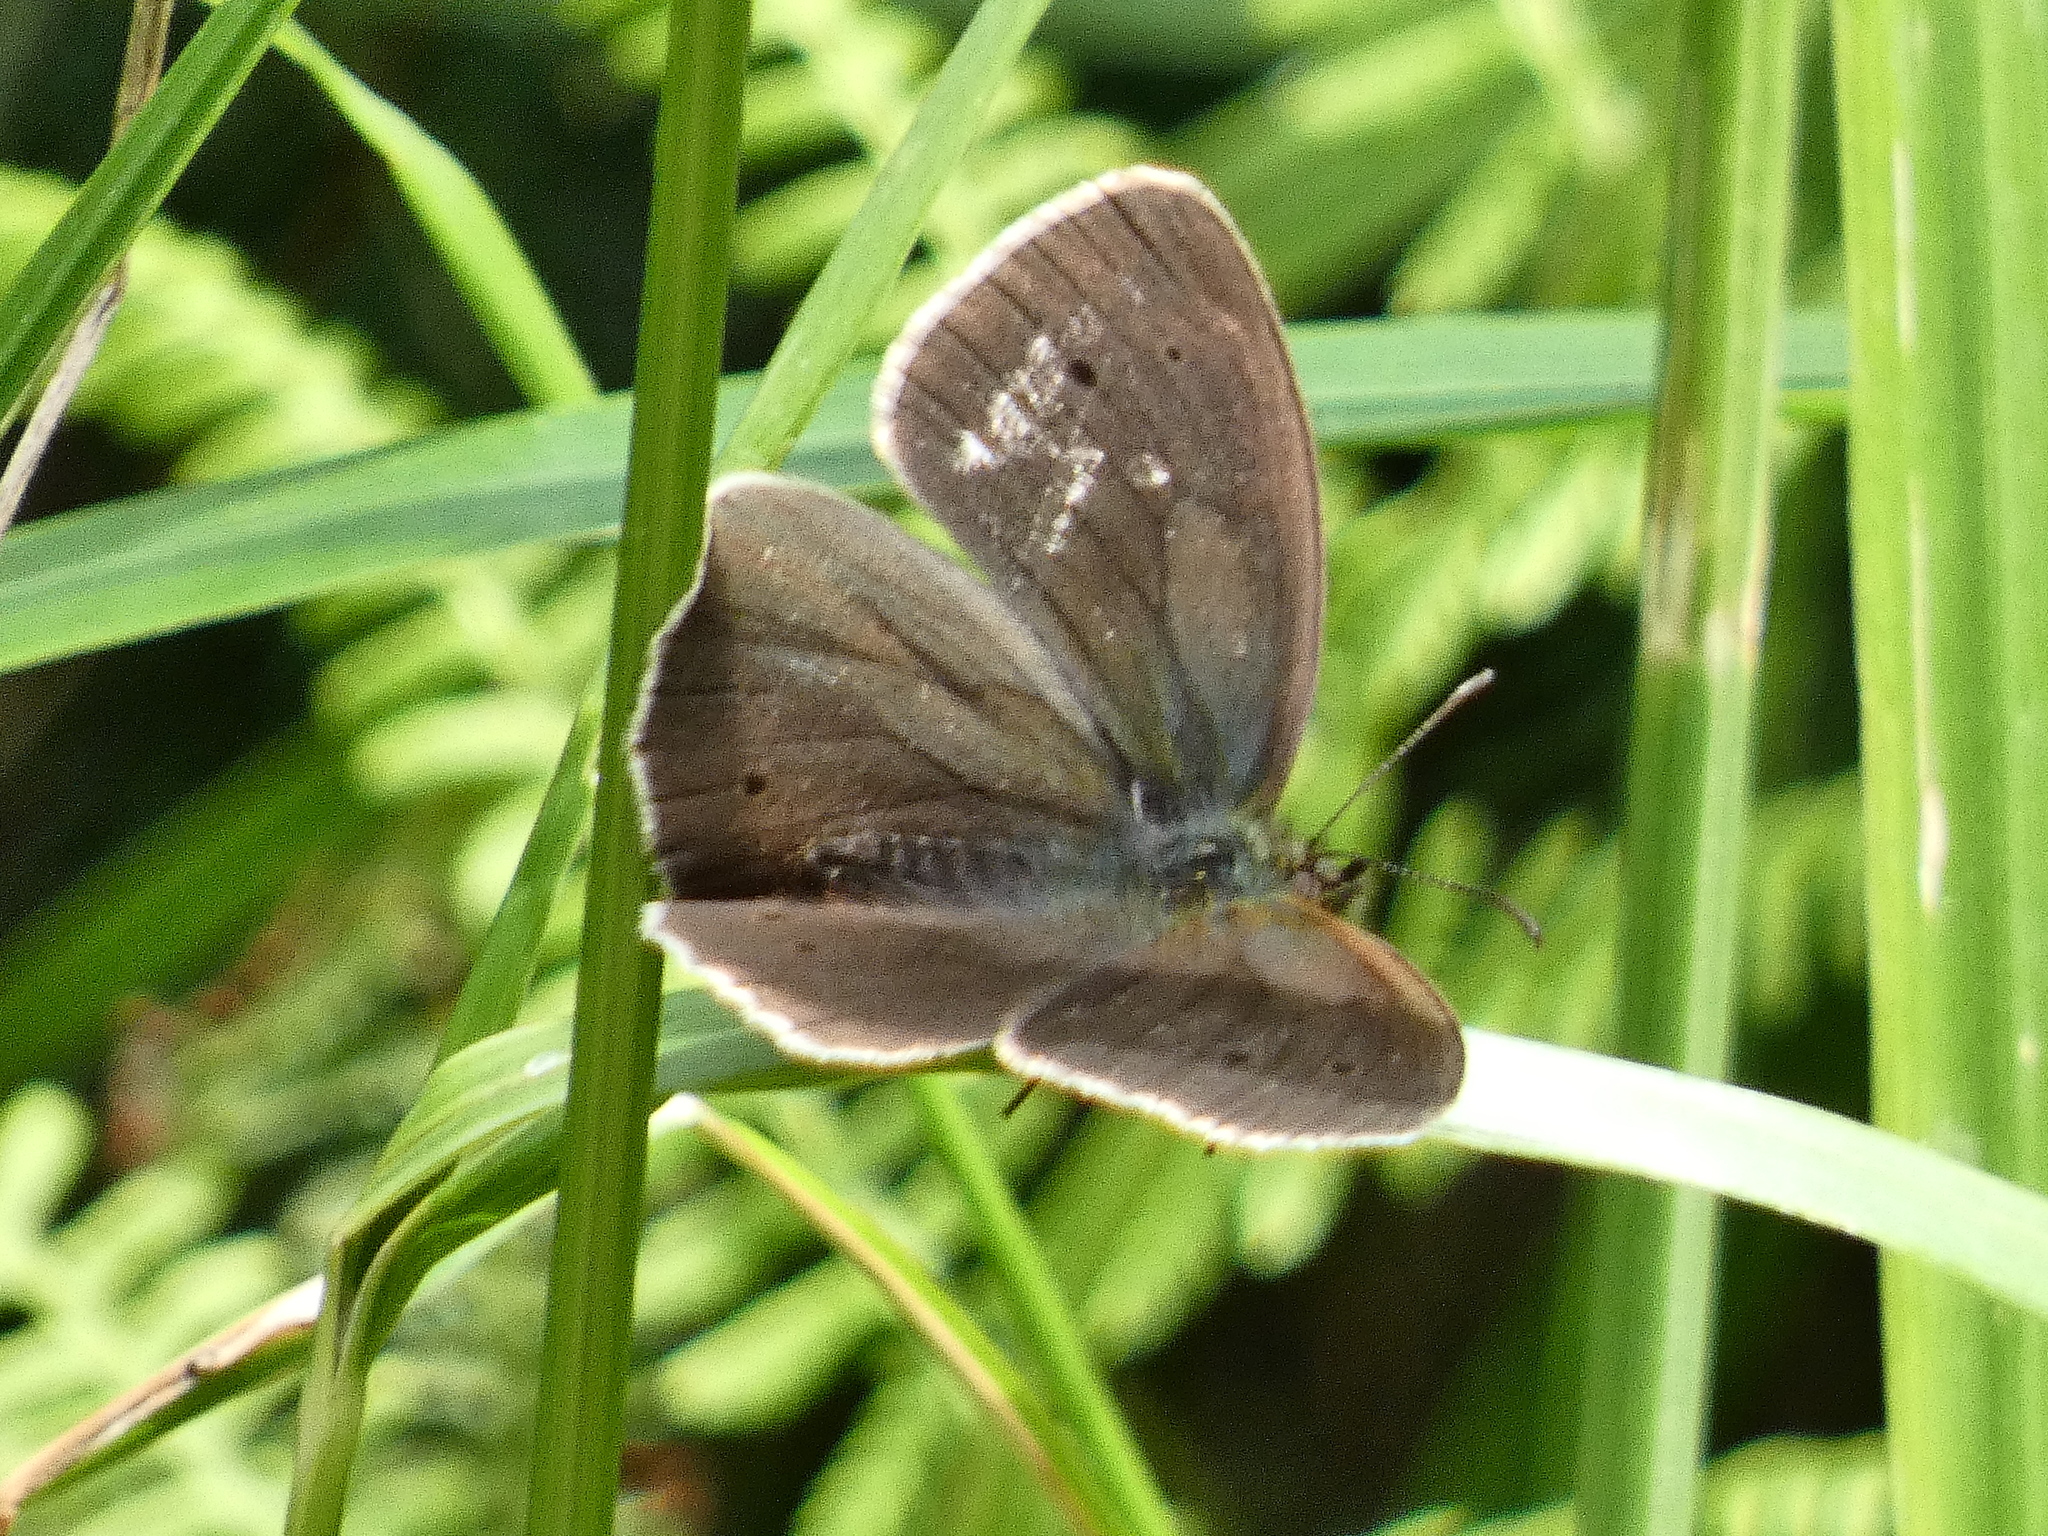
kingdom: Animalia
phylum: Arthropoda
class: Insecta
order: Lepidoptera
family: Nymphalidae
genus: Aphantopus
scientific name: Aphantopus hyperantus
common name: Ringlet
